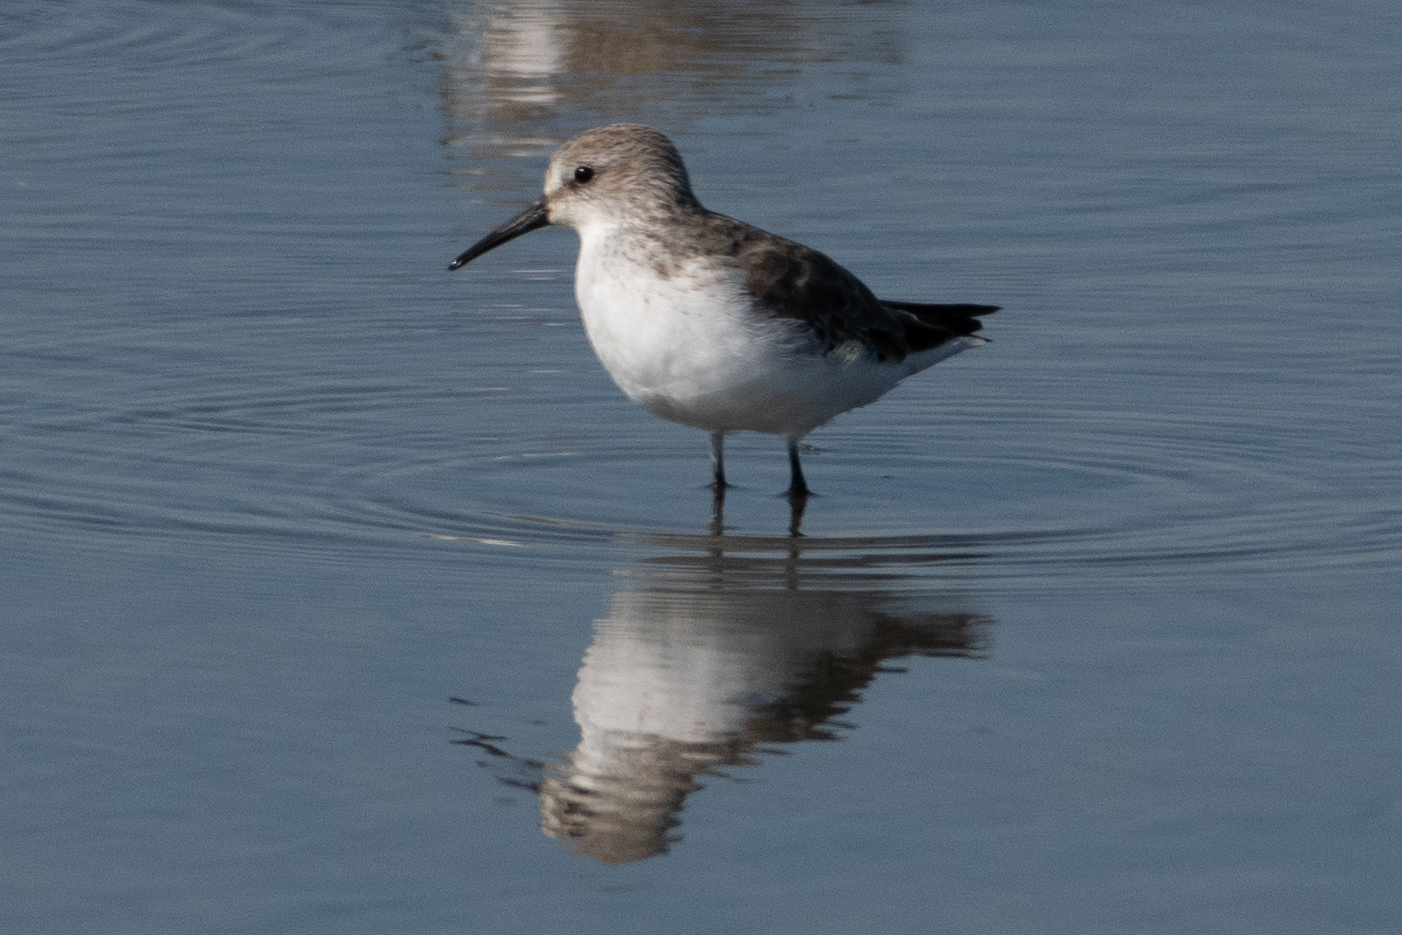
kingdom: Animalia
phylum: Chordata
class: Aves
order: Charadriiformes
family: Scolopacidae
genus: Calidris
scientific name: Calidris mauri
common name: Western sandpiper
